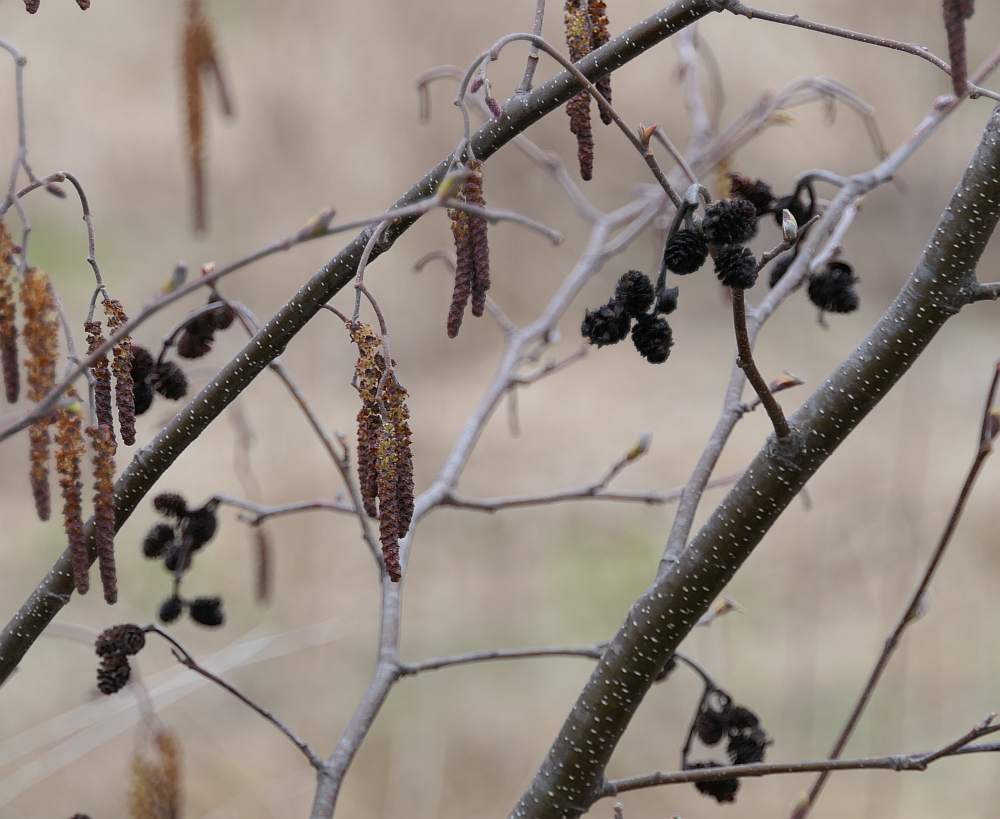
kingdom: Plantae
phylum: Tracheophyta
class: Magnoliopsida
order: Fagales
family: Betulaceae
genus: Alnus
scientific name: Alnus incana
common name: Grey alder
